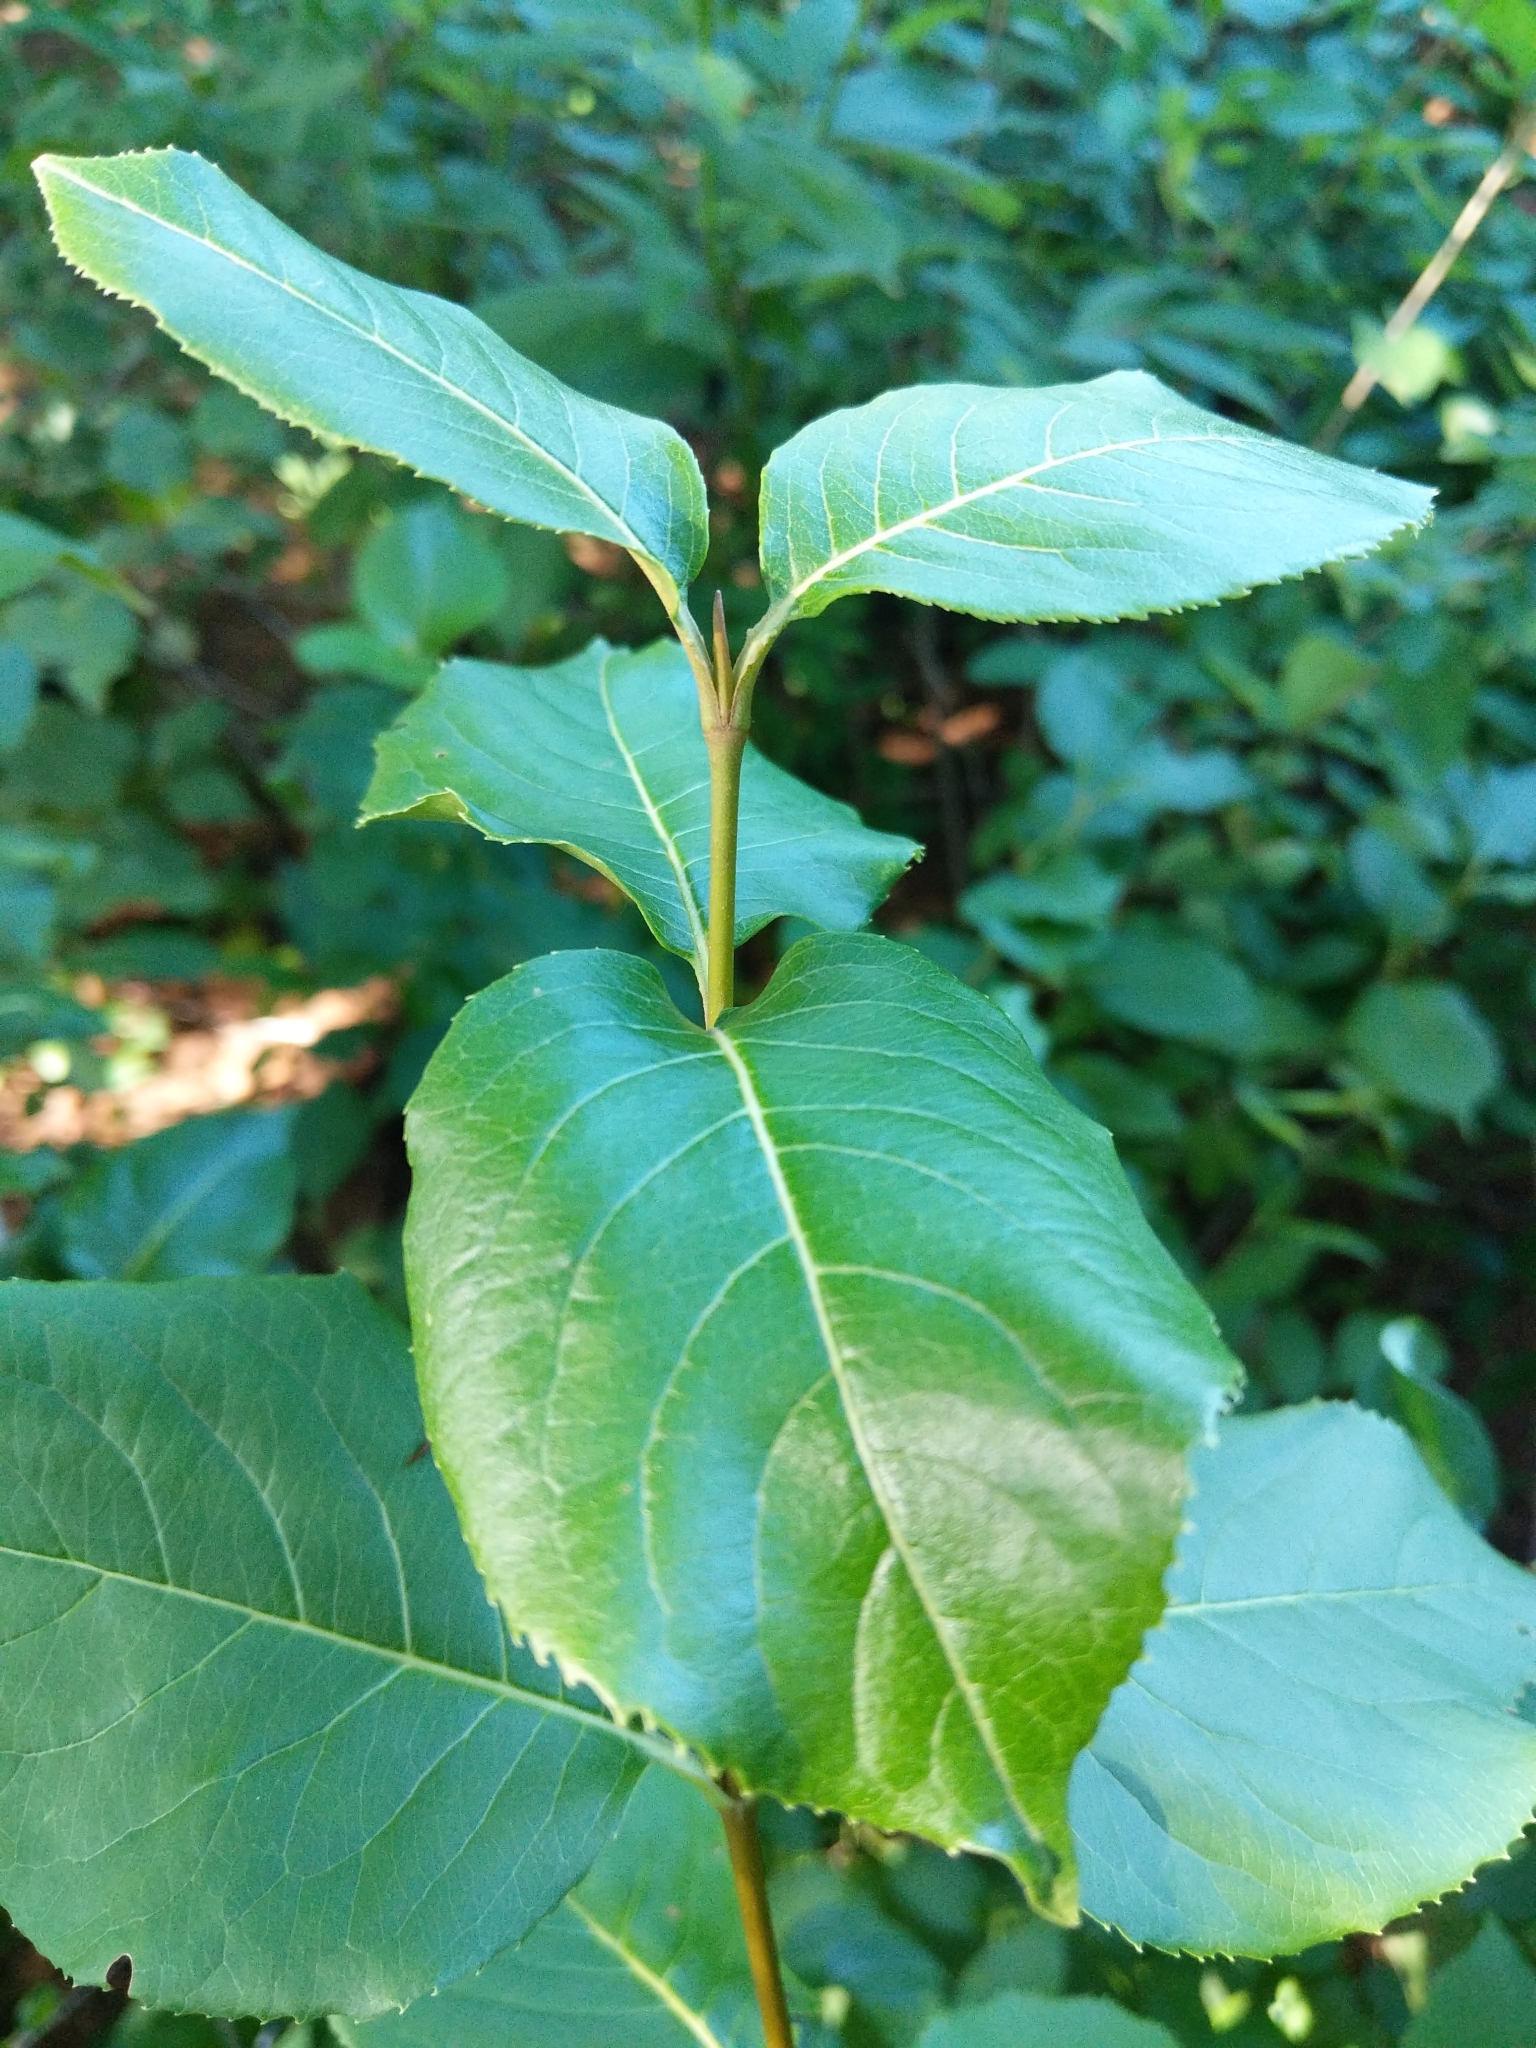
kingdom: Plantae
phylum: Tracheophyta
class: Magnoliopsida
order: Dipsacales
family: Viburnaceae
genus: Viburnum
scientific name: Viburnum lentago
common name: Black haw
